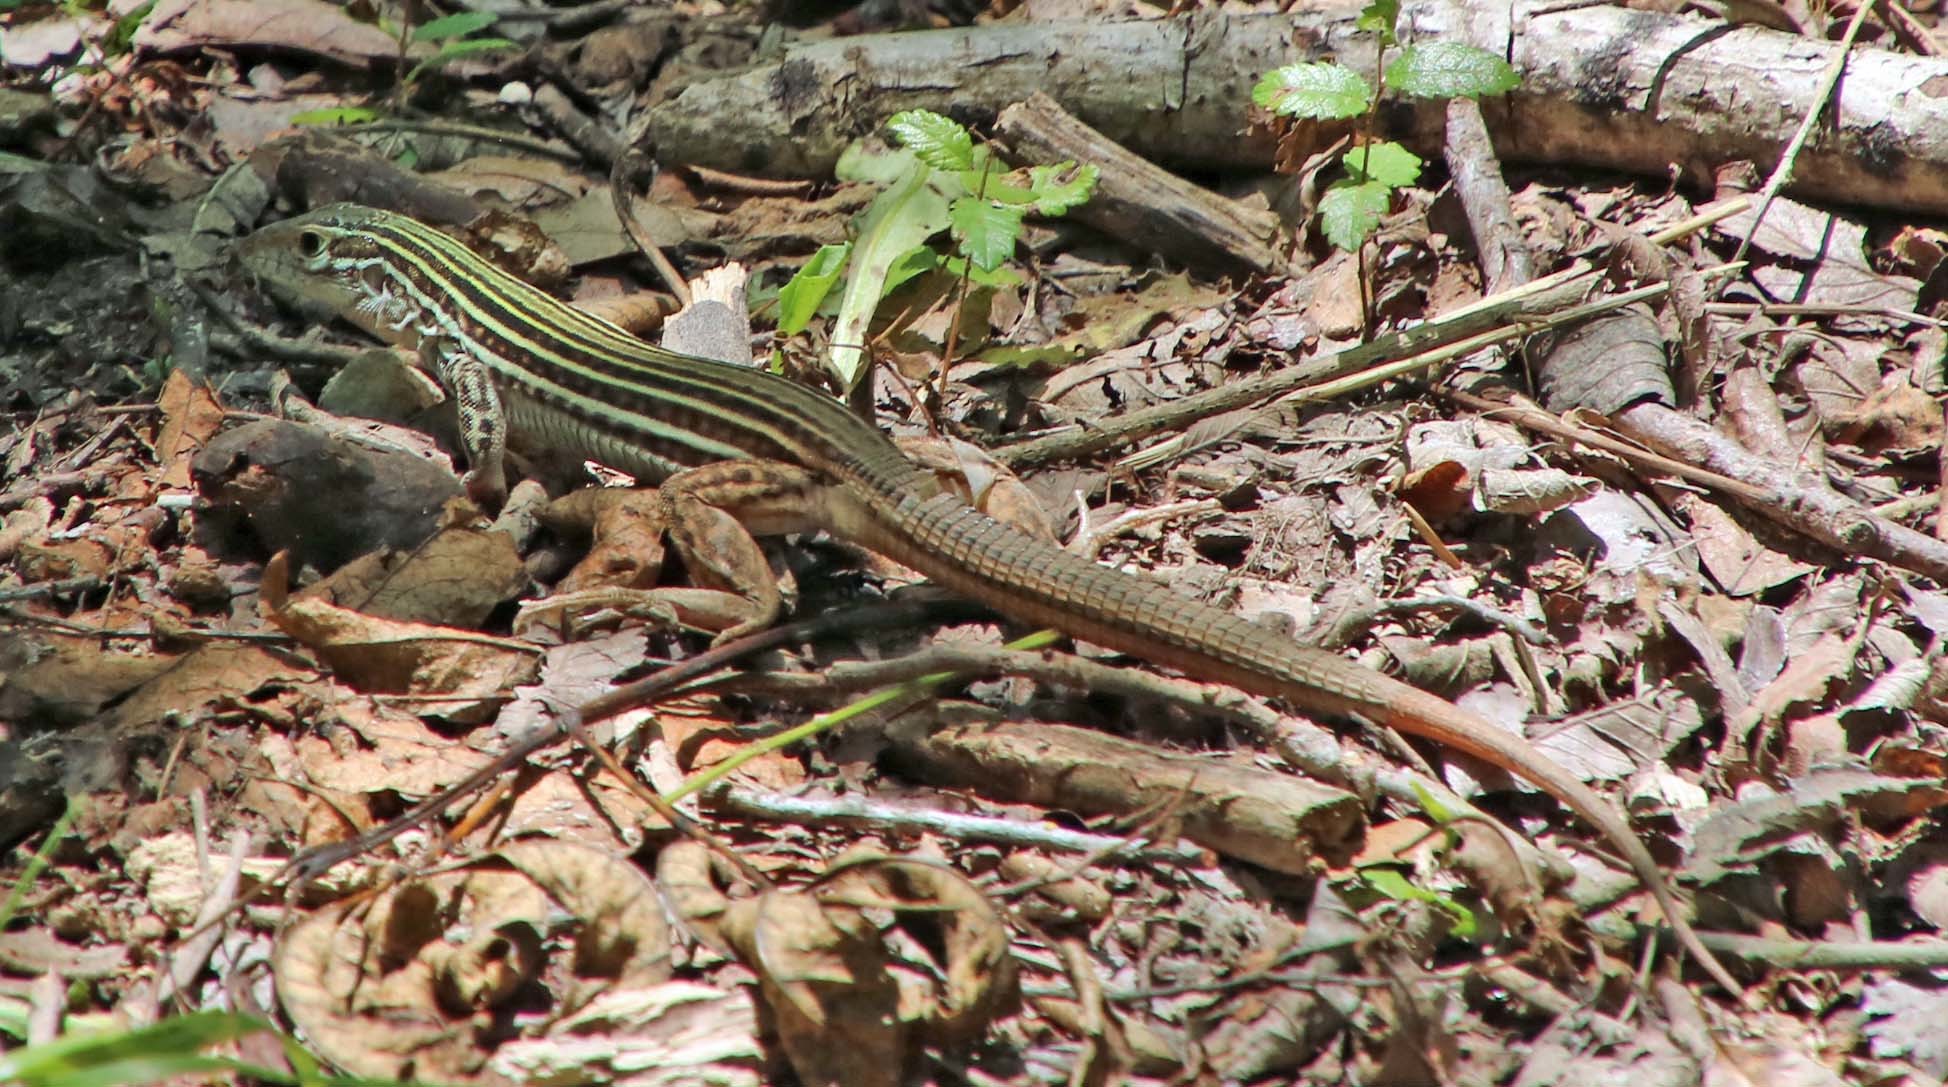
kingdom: Animalia
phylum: Chordata
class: Squamata
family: Teiidae
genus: Aspidoscelis
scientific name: Aspidoscelis gularis
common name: Eastern spotted whiptail
